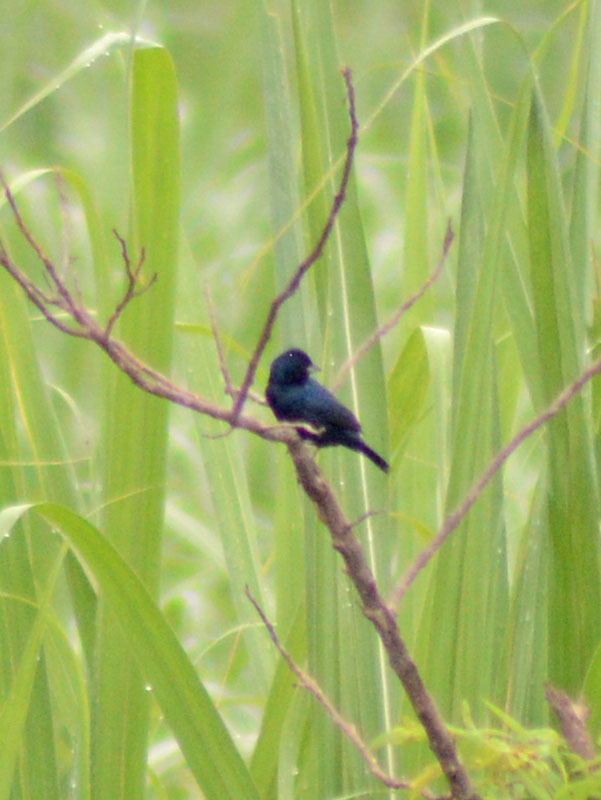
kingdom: Animalia
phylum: Chordata
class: Aves
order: Passeriformes
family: Thraupidae
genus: Volatinia
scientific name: Volatinia jacarina
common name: Blue-black grassquit
